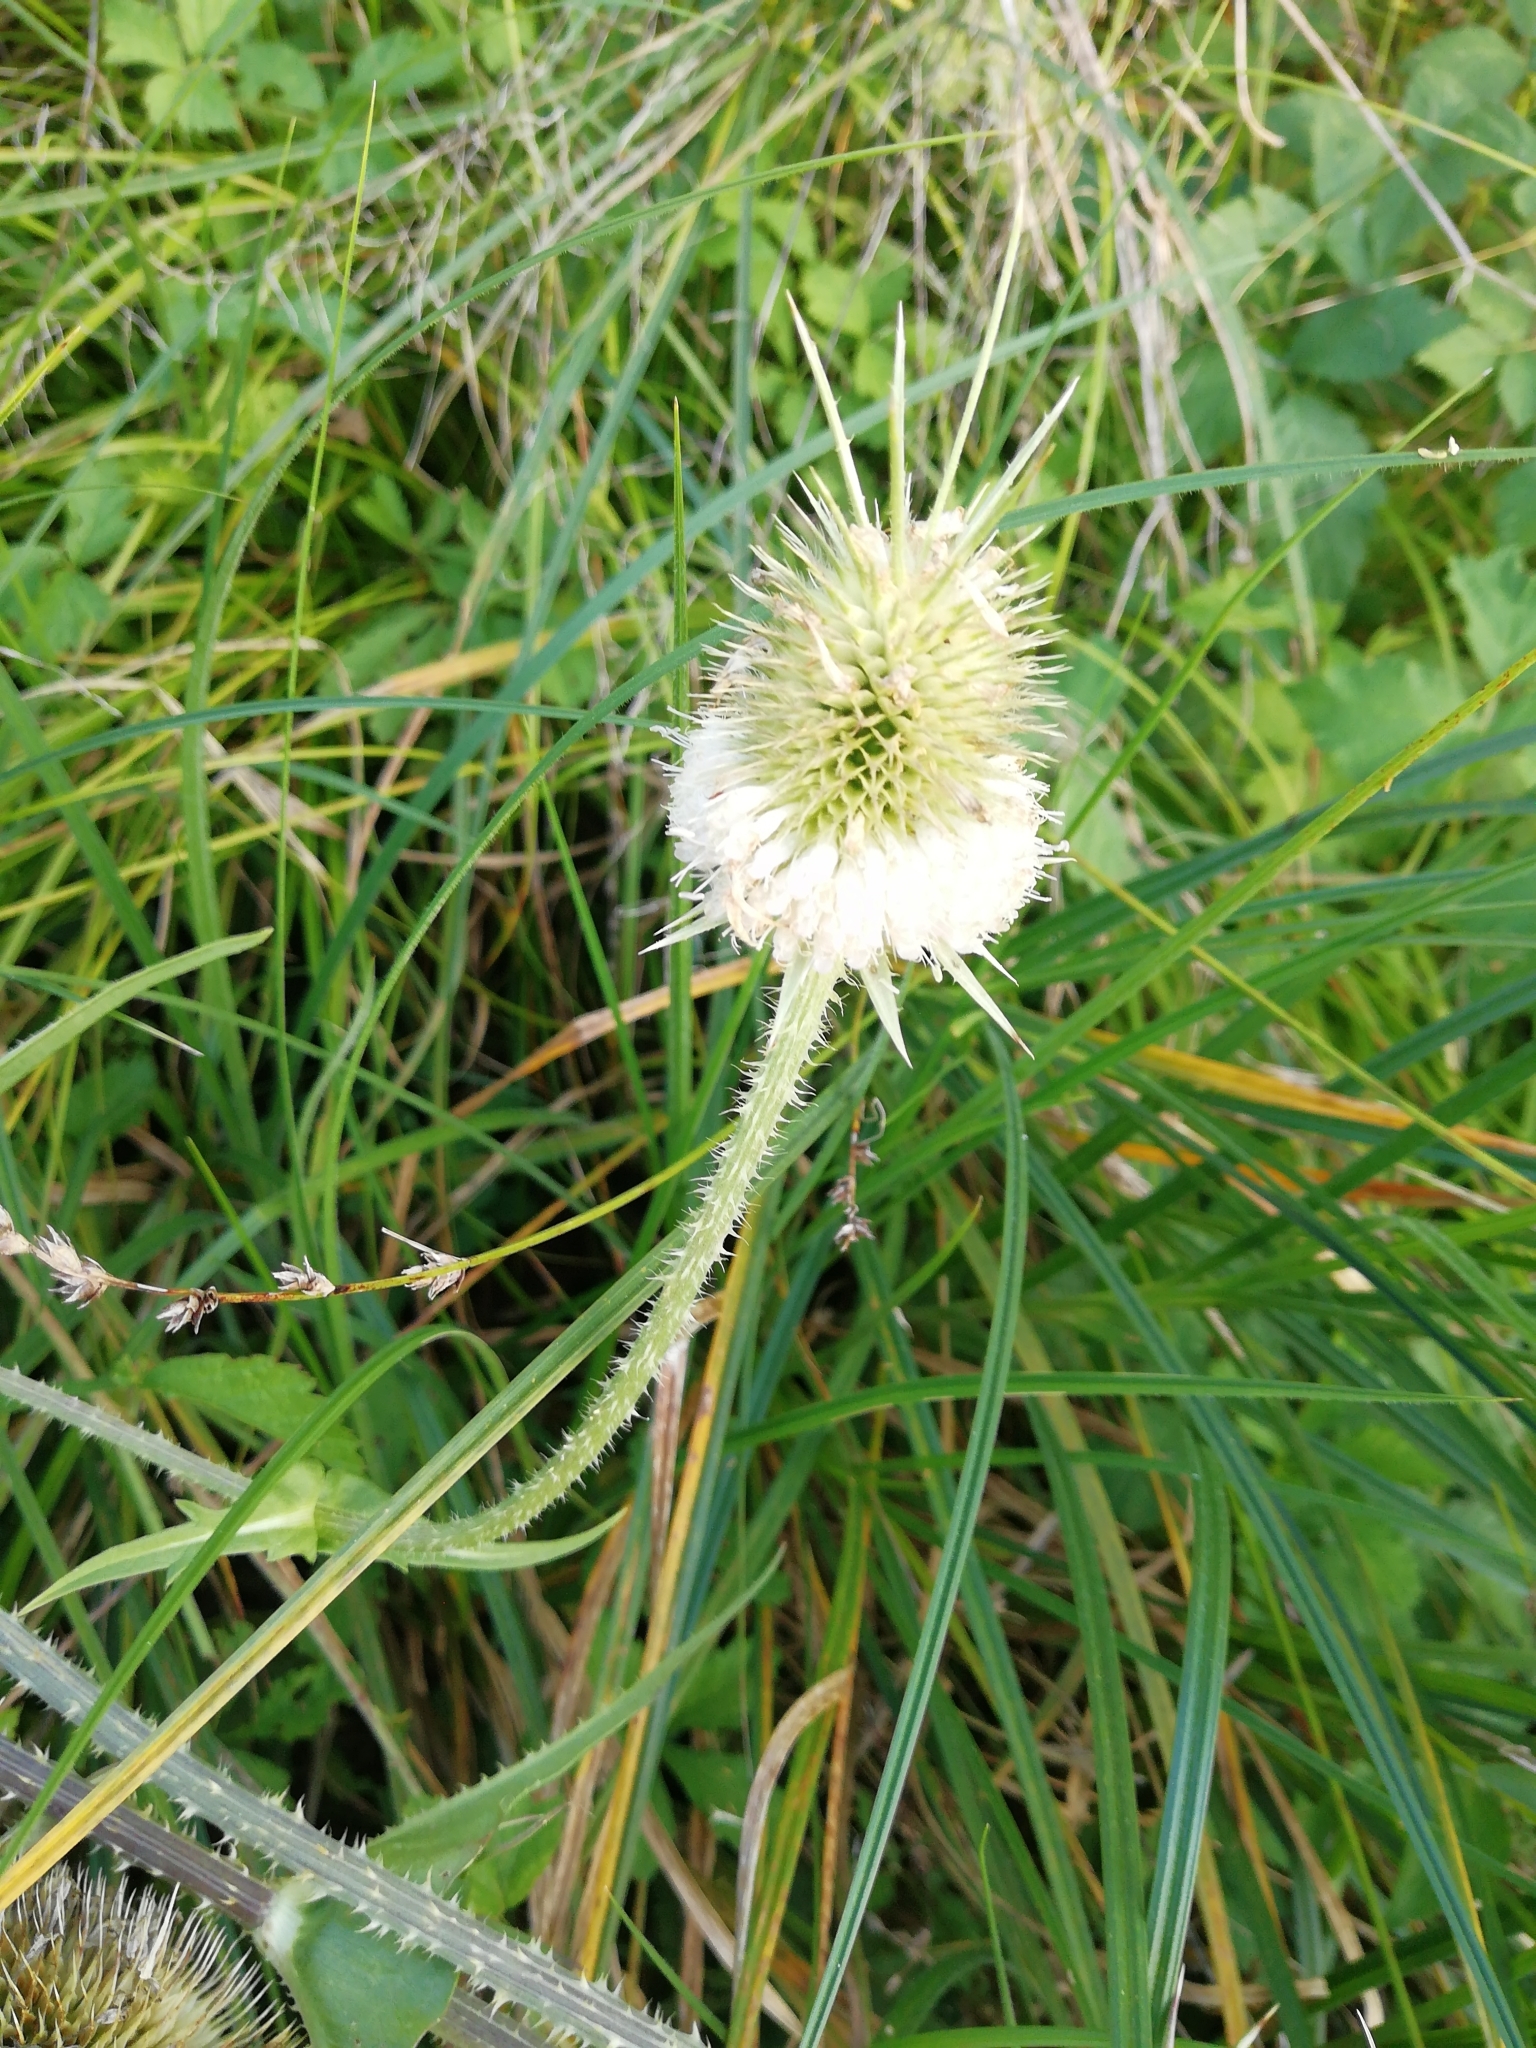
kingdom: Plantae
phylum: Tracheophyta
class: Magnoliopsida
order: Dipsacales
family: Caprifoliaceae
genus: Dipsacus
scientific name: Dipsacus laciniatus
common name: Cut-leaved teasel
